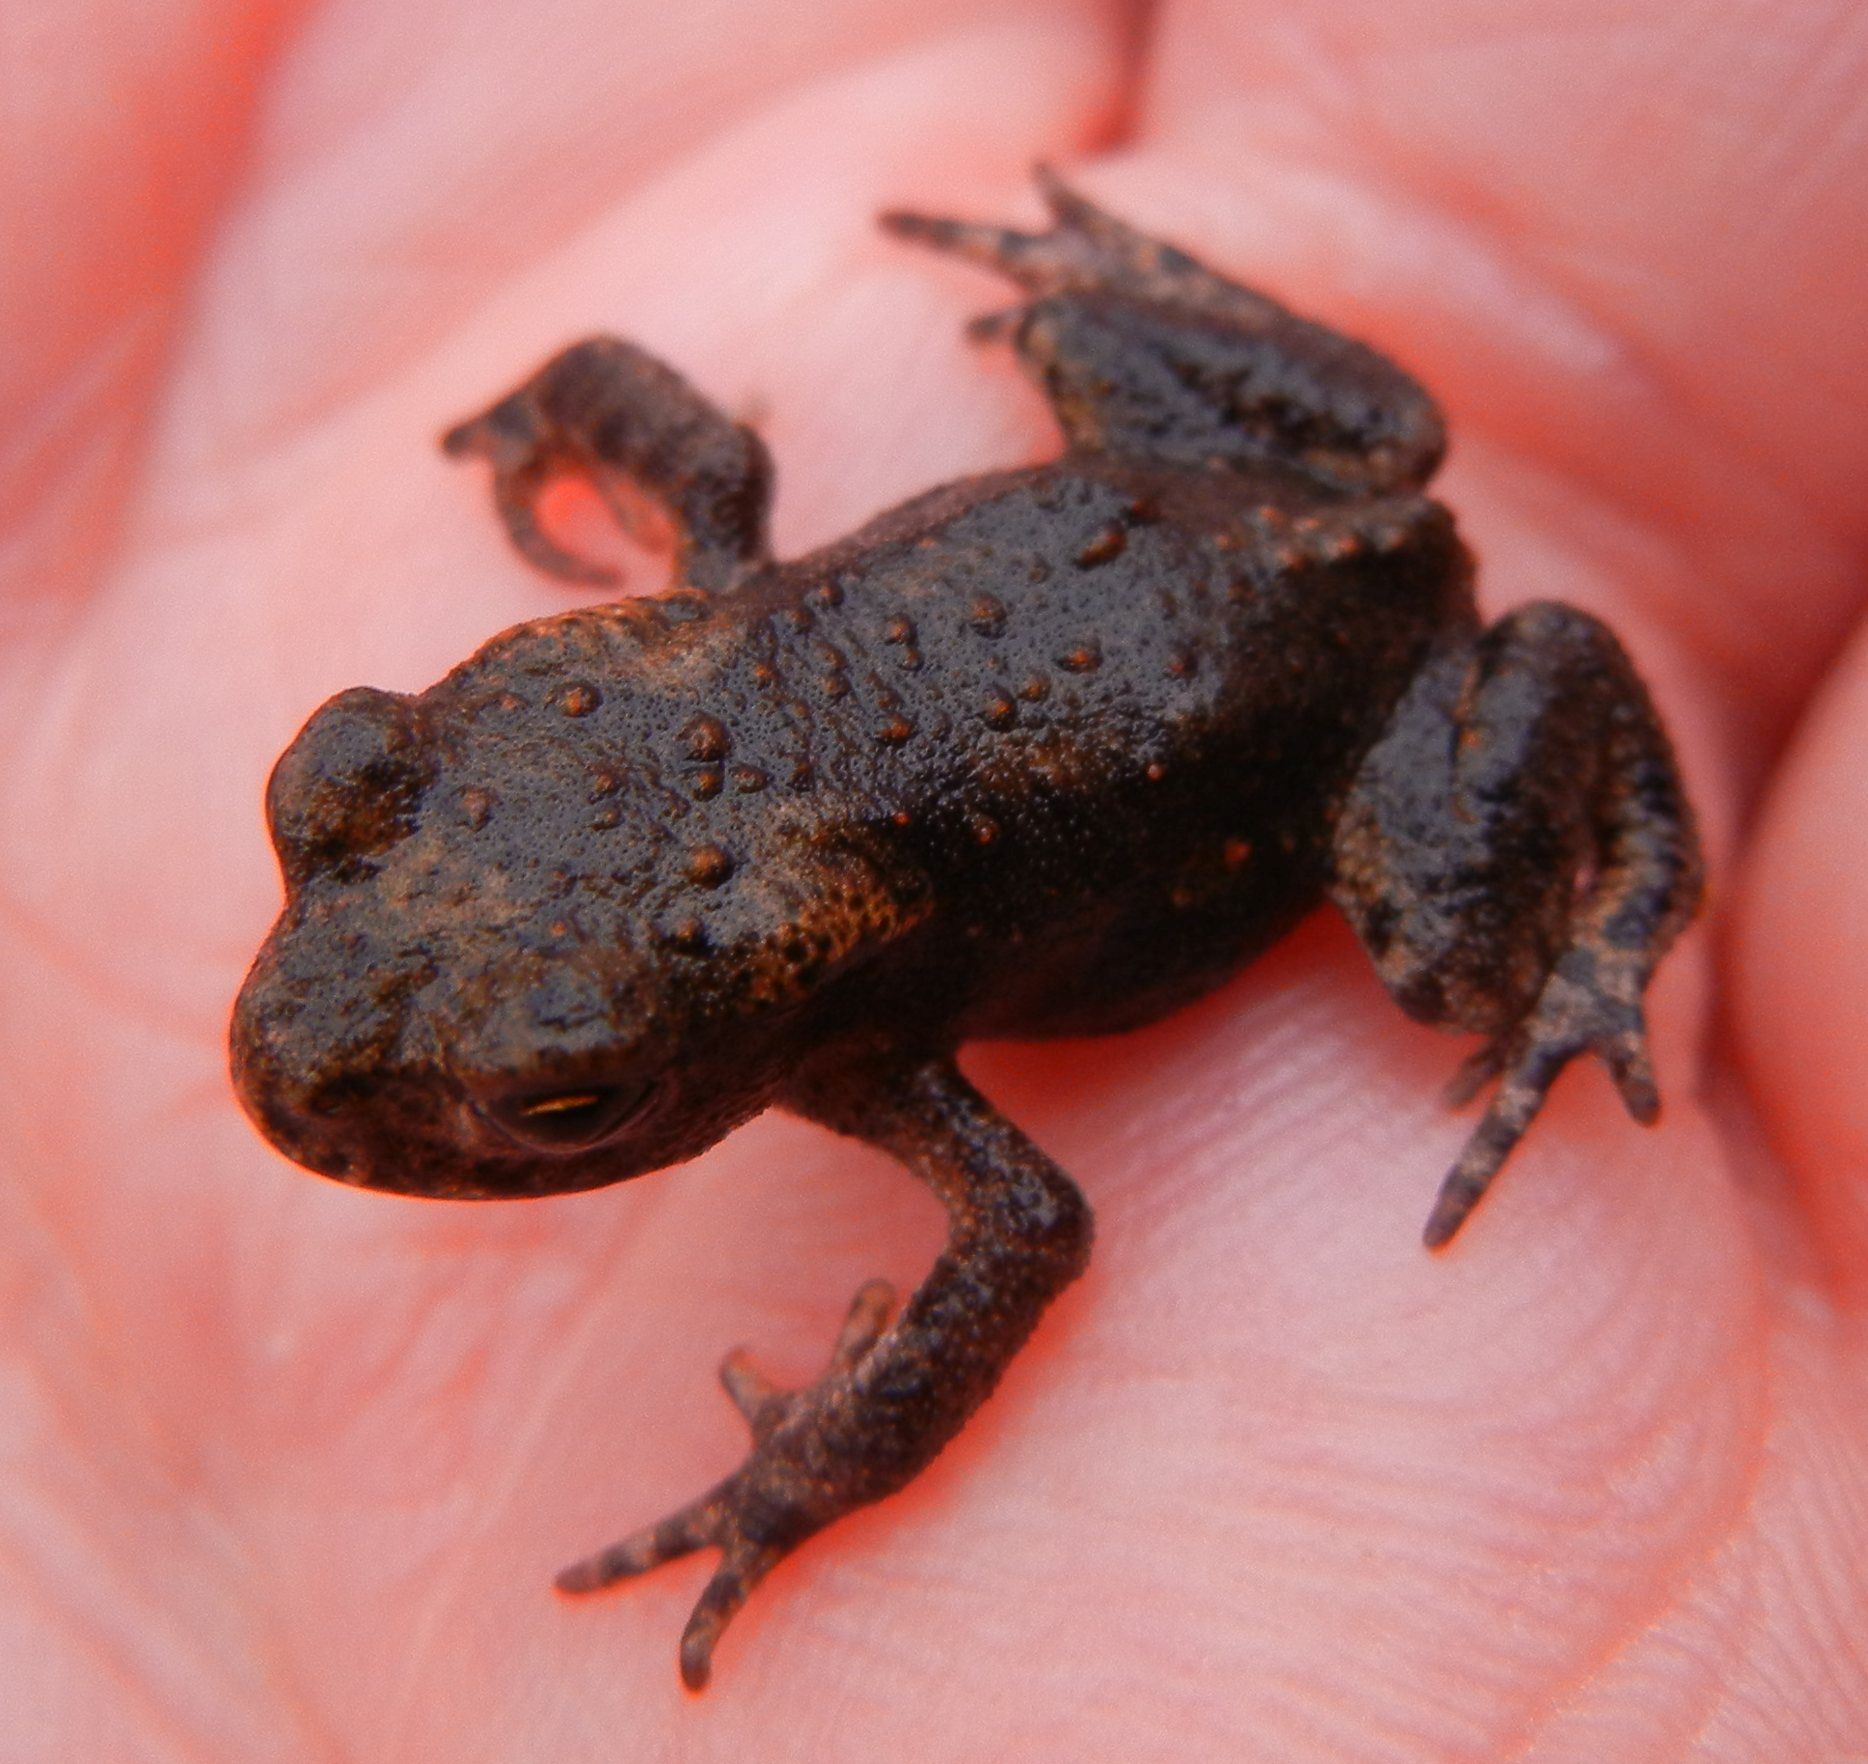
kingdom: Animalia
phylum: Chordata
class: Amphibia
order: Anura
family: Bufonidae
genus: Bufo
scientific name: Bufo bufo
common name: Common toad
